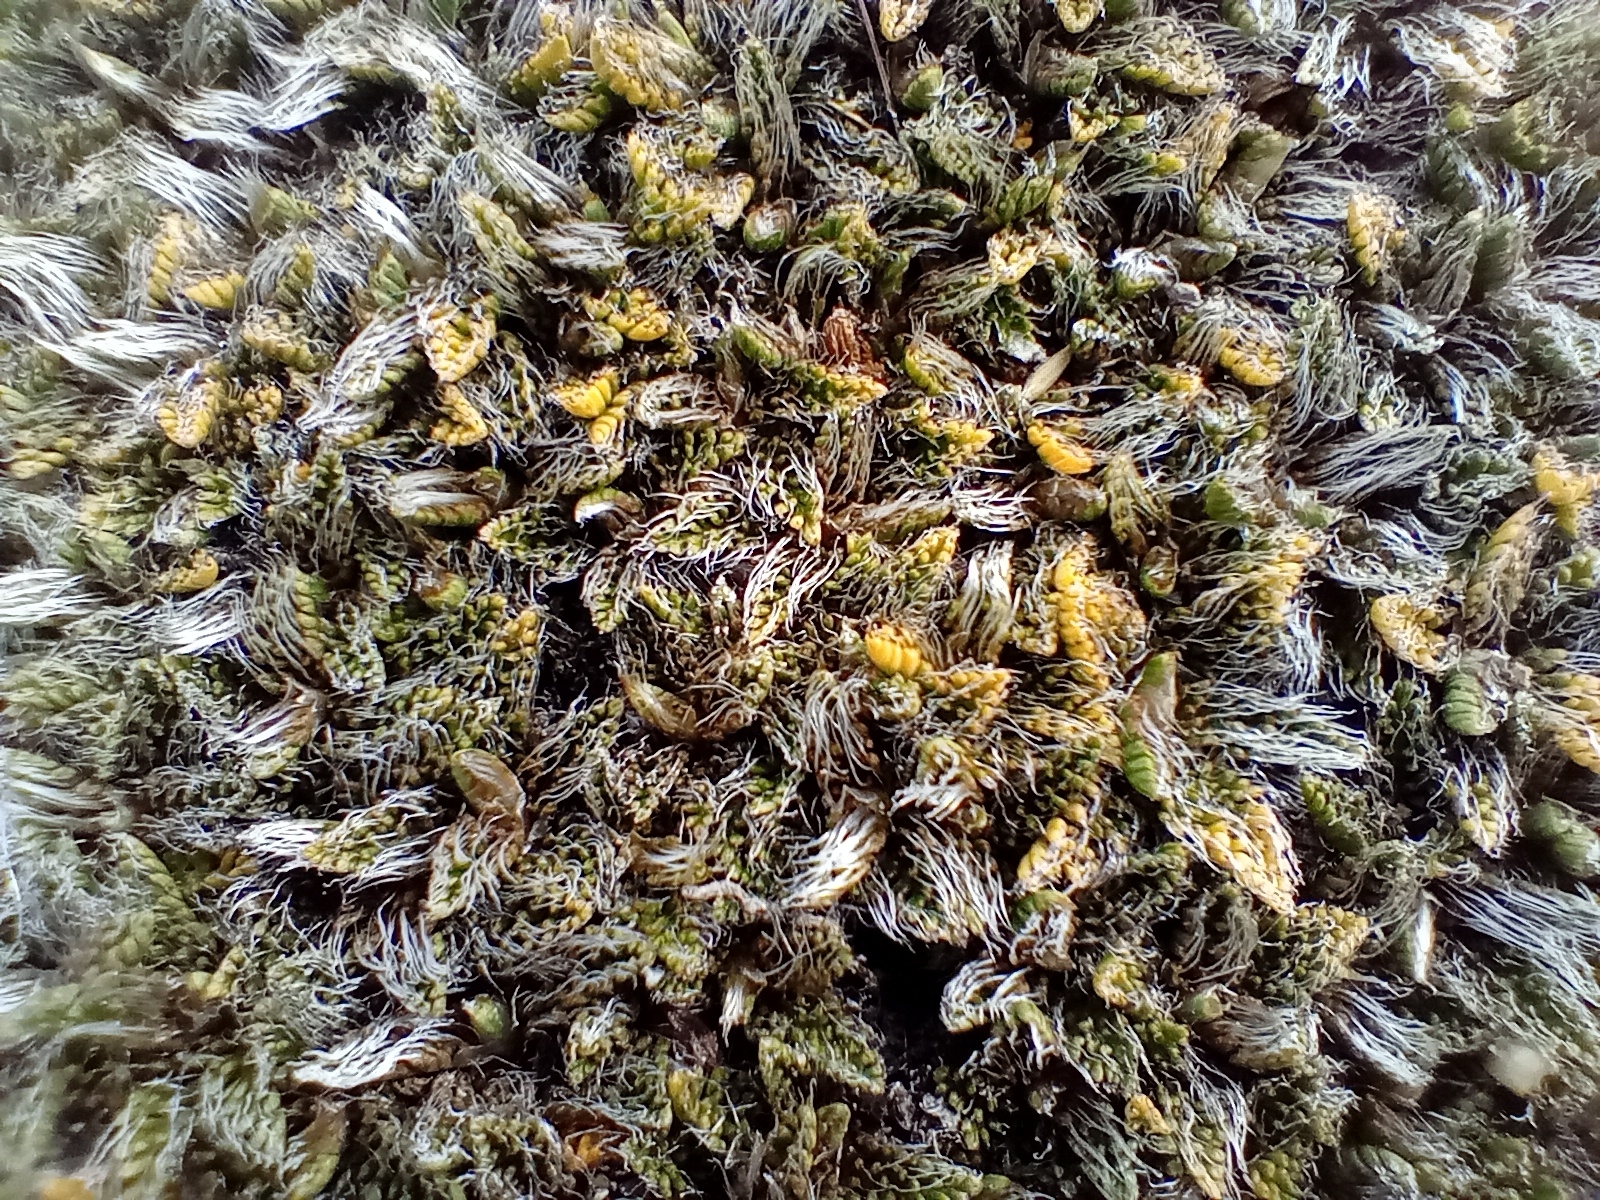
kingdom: Plantae
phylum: Tracheophyta
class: Magnoliopsida
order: Apiales
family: Apiaceae
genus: Anisotome
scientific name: Anisotome imbricata
